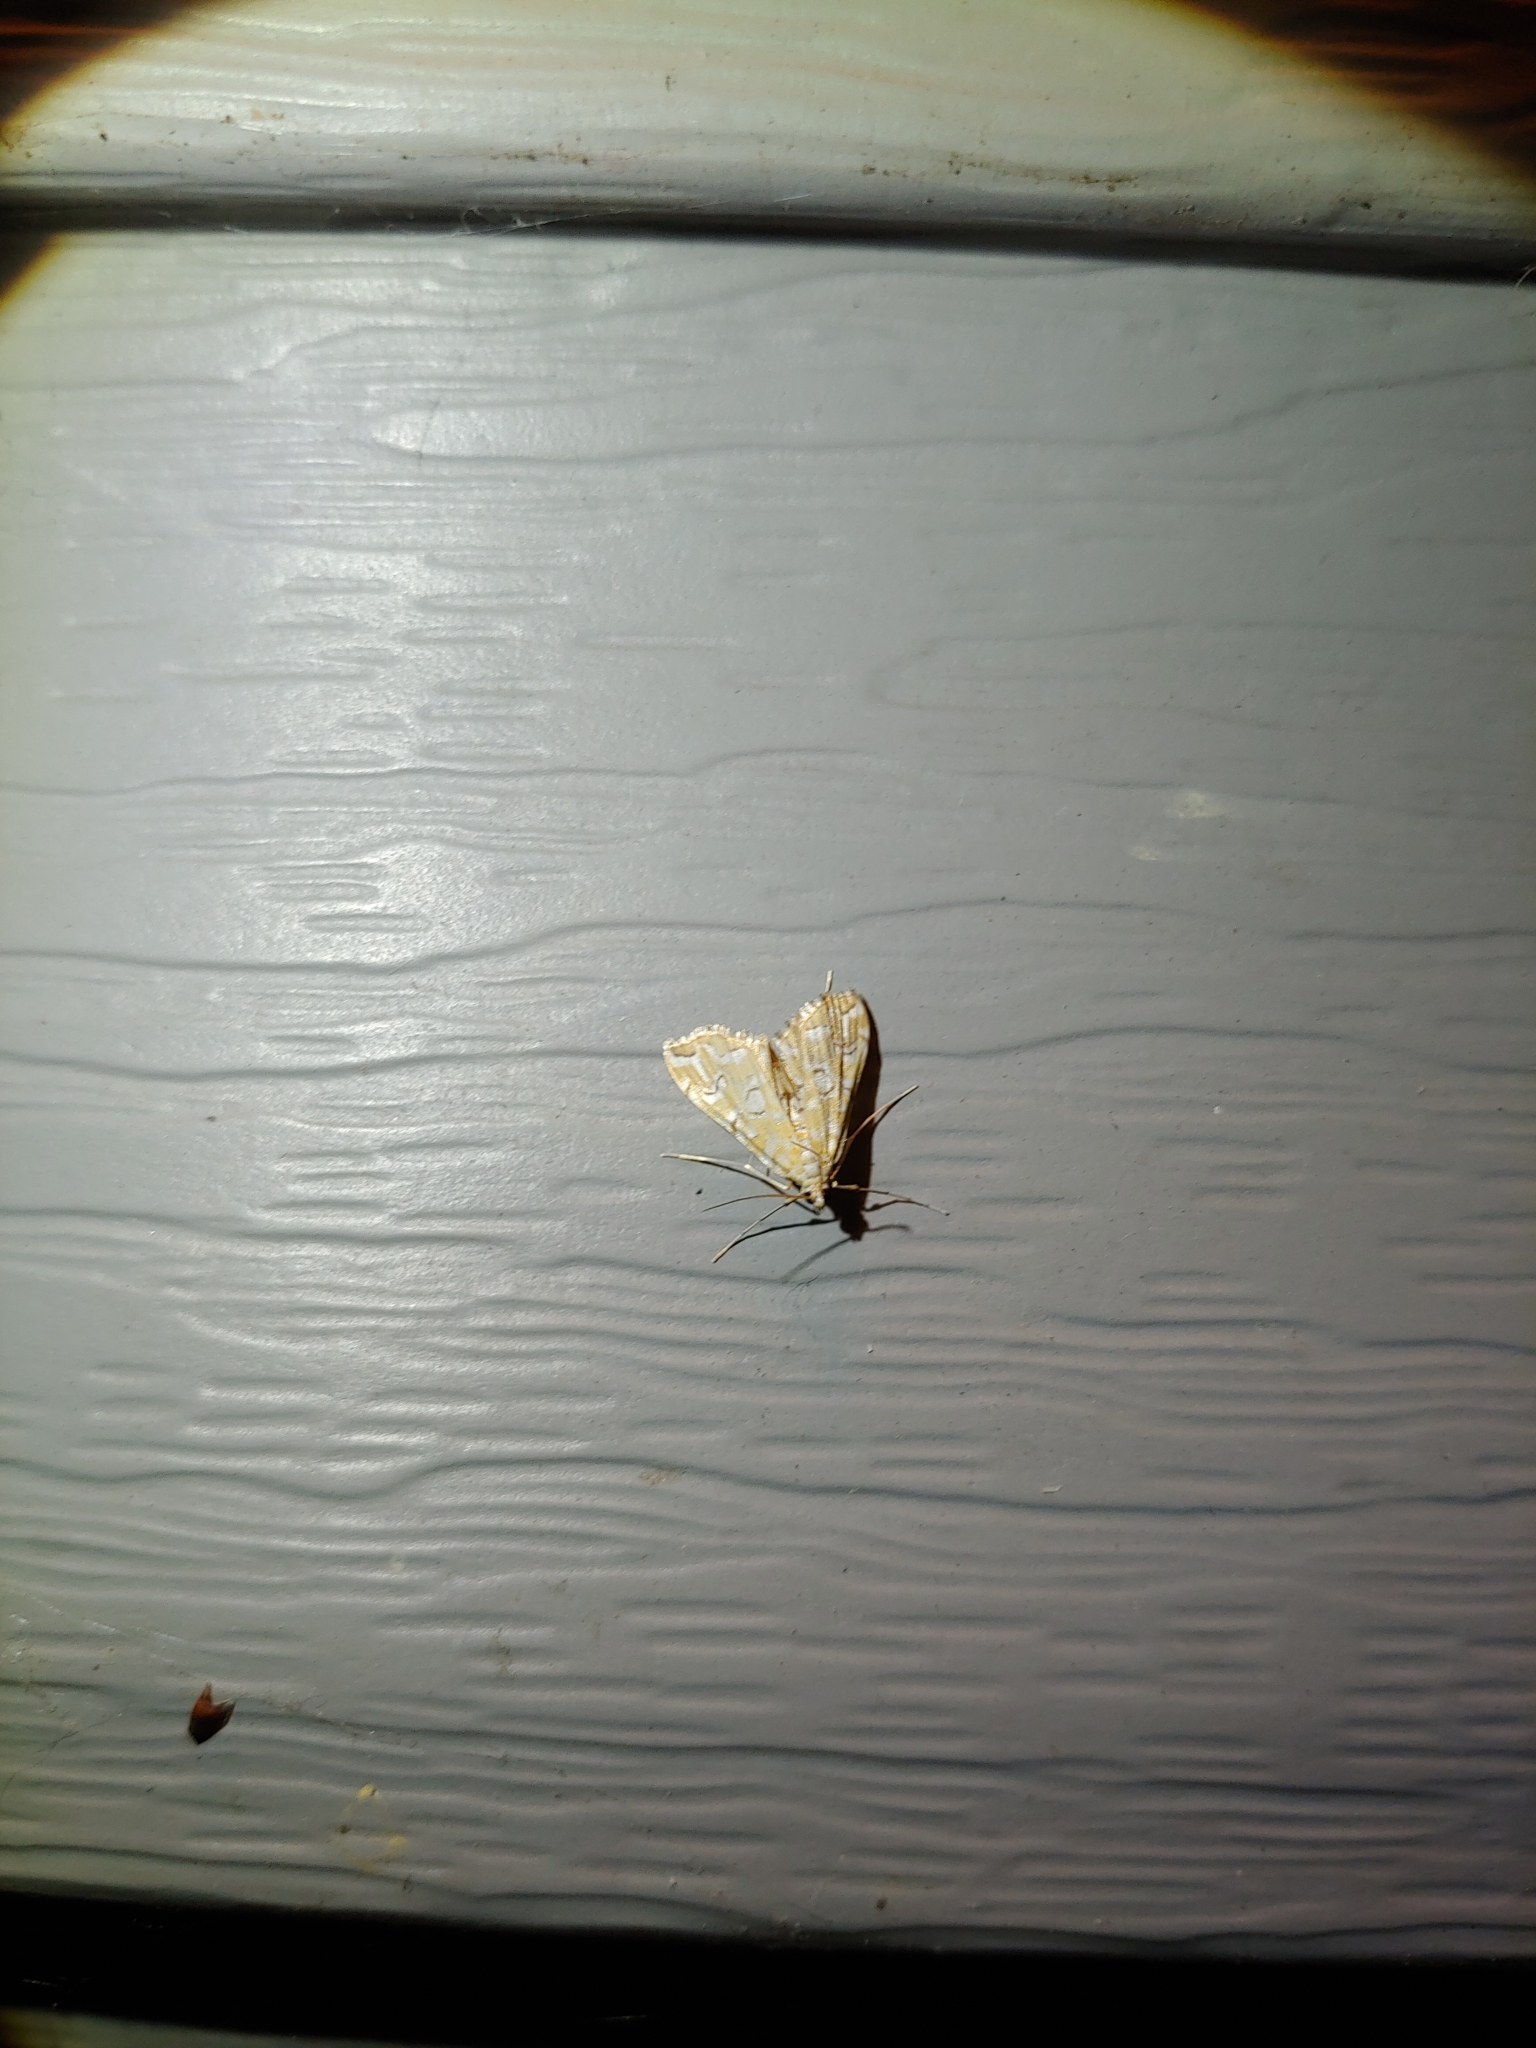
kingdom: Animalia
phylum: Arthropoda
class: Insecta
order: Lepidoptera
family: Crambidae
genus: Elophila
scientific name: Elophila icciusalis
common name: Pondside pyralid moth
